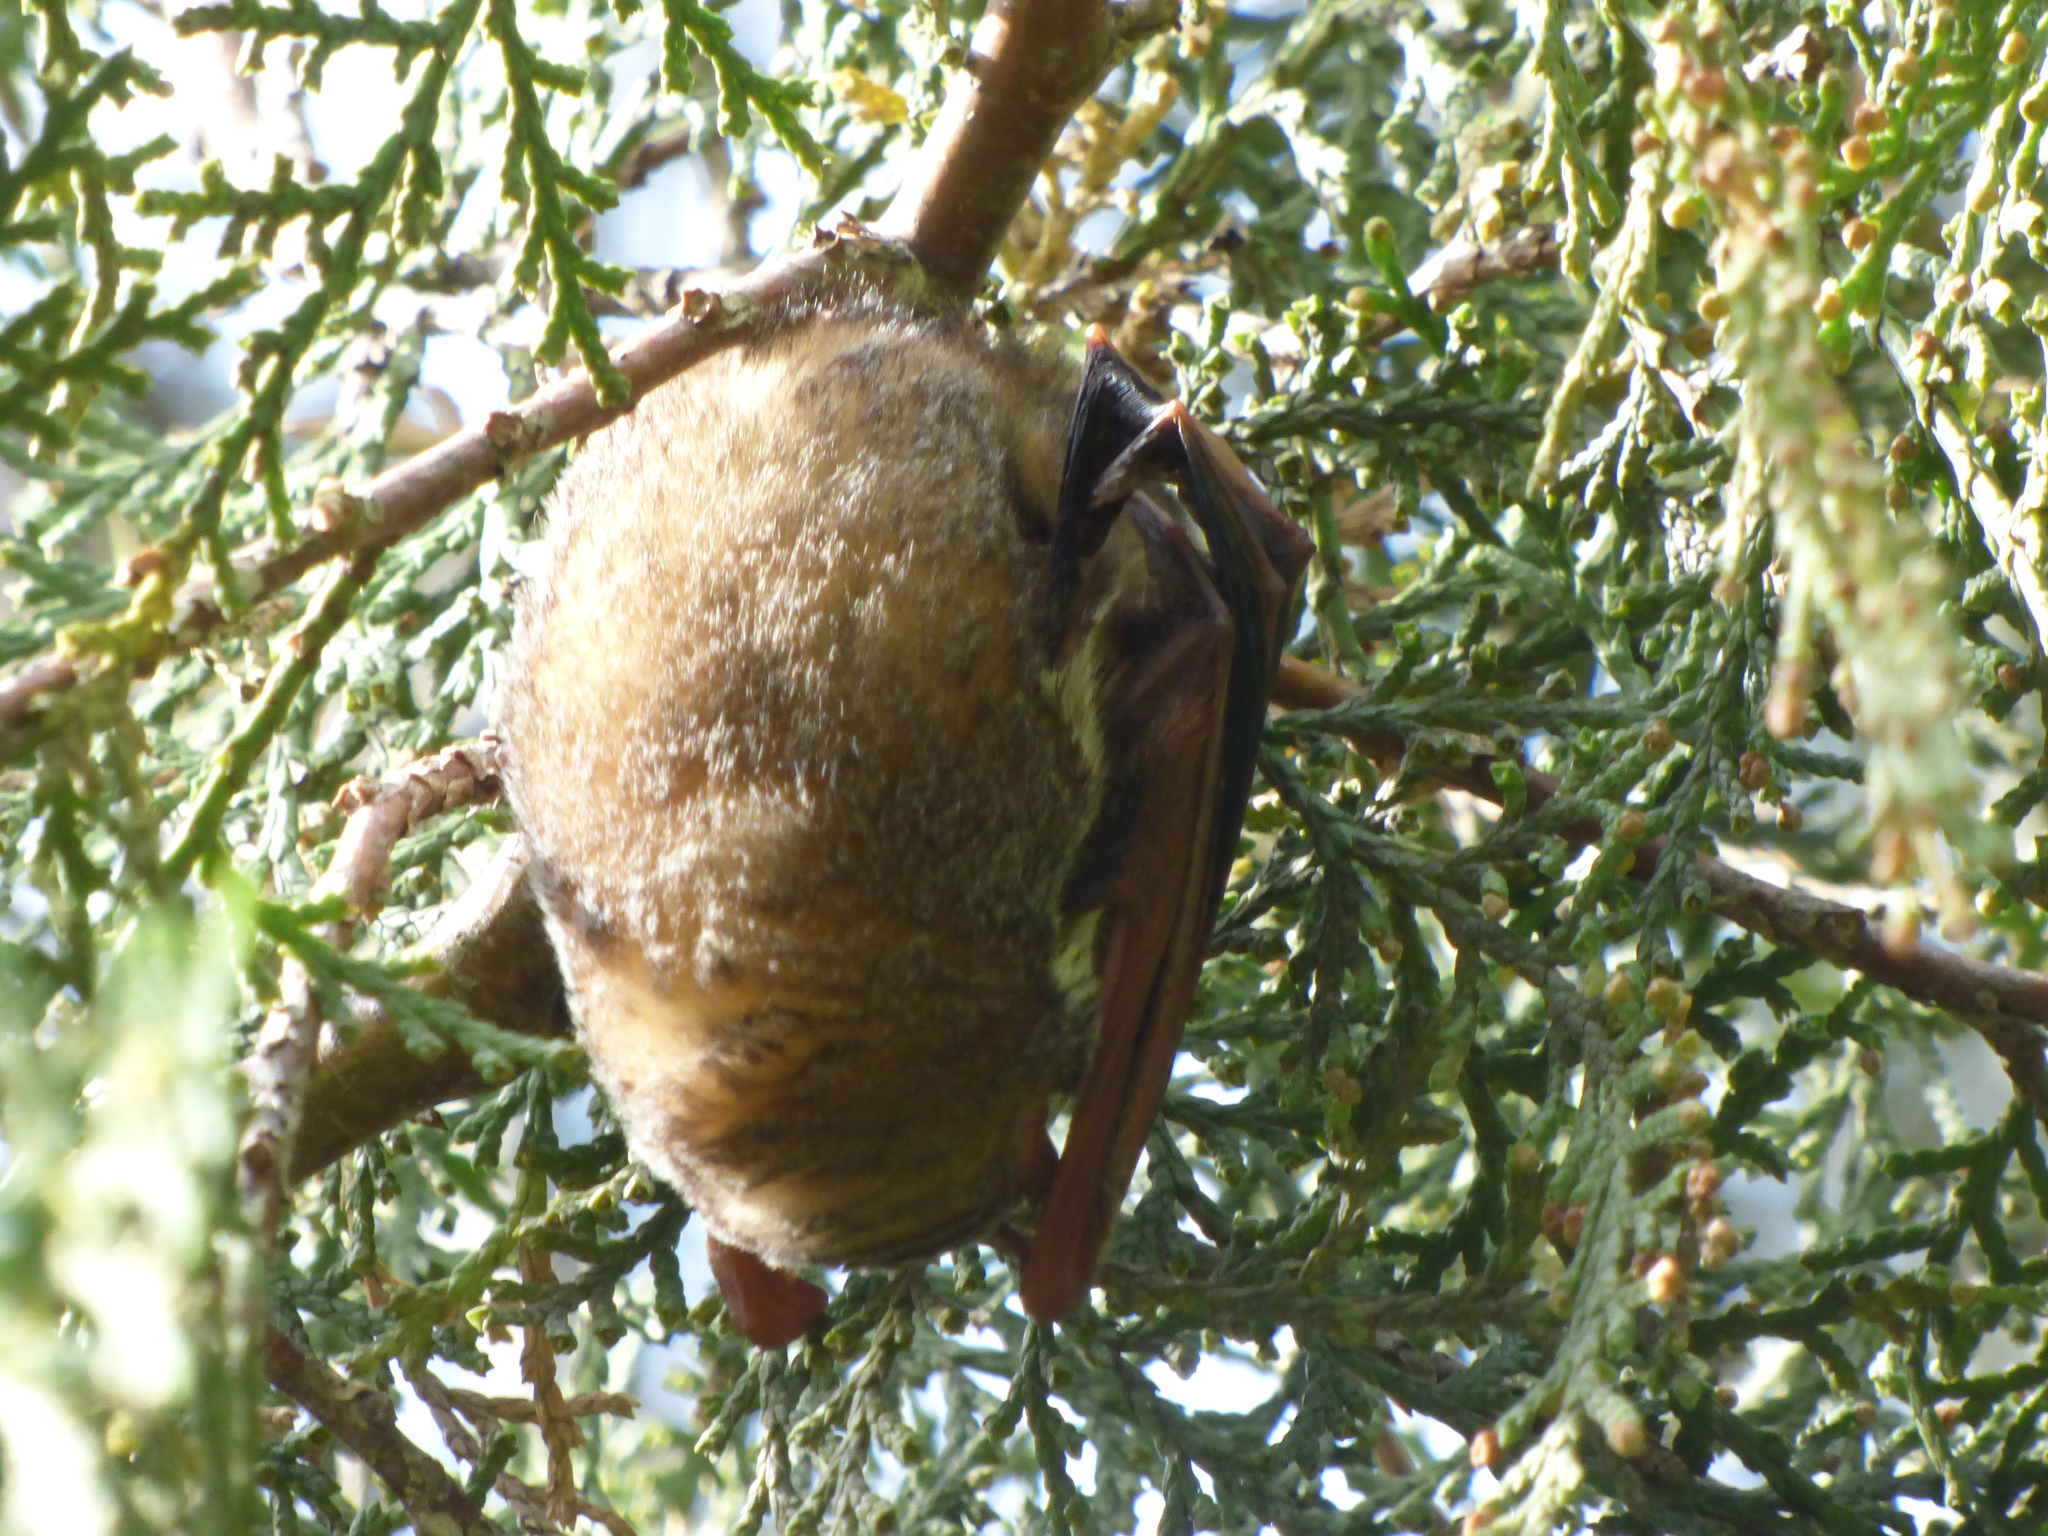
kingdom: Animalia
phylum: Chordata
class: Mammalia
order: Chiroptera
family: Vespertilionidae
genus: Lasiurus
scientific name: Lasiurus blossevillii
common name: Southern red bat
